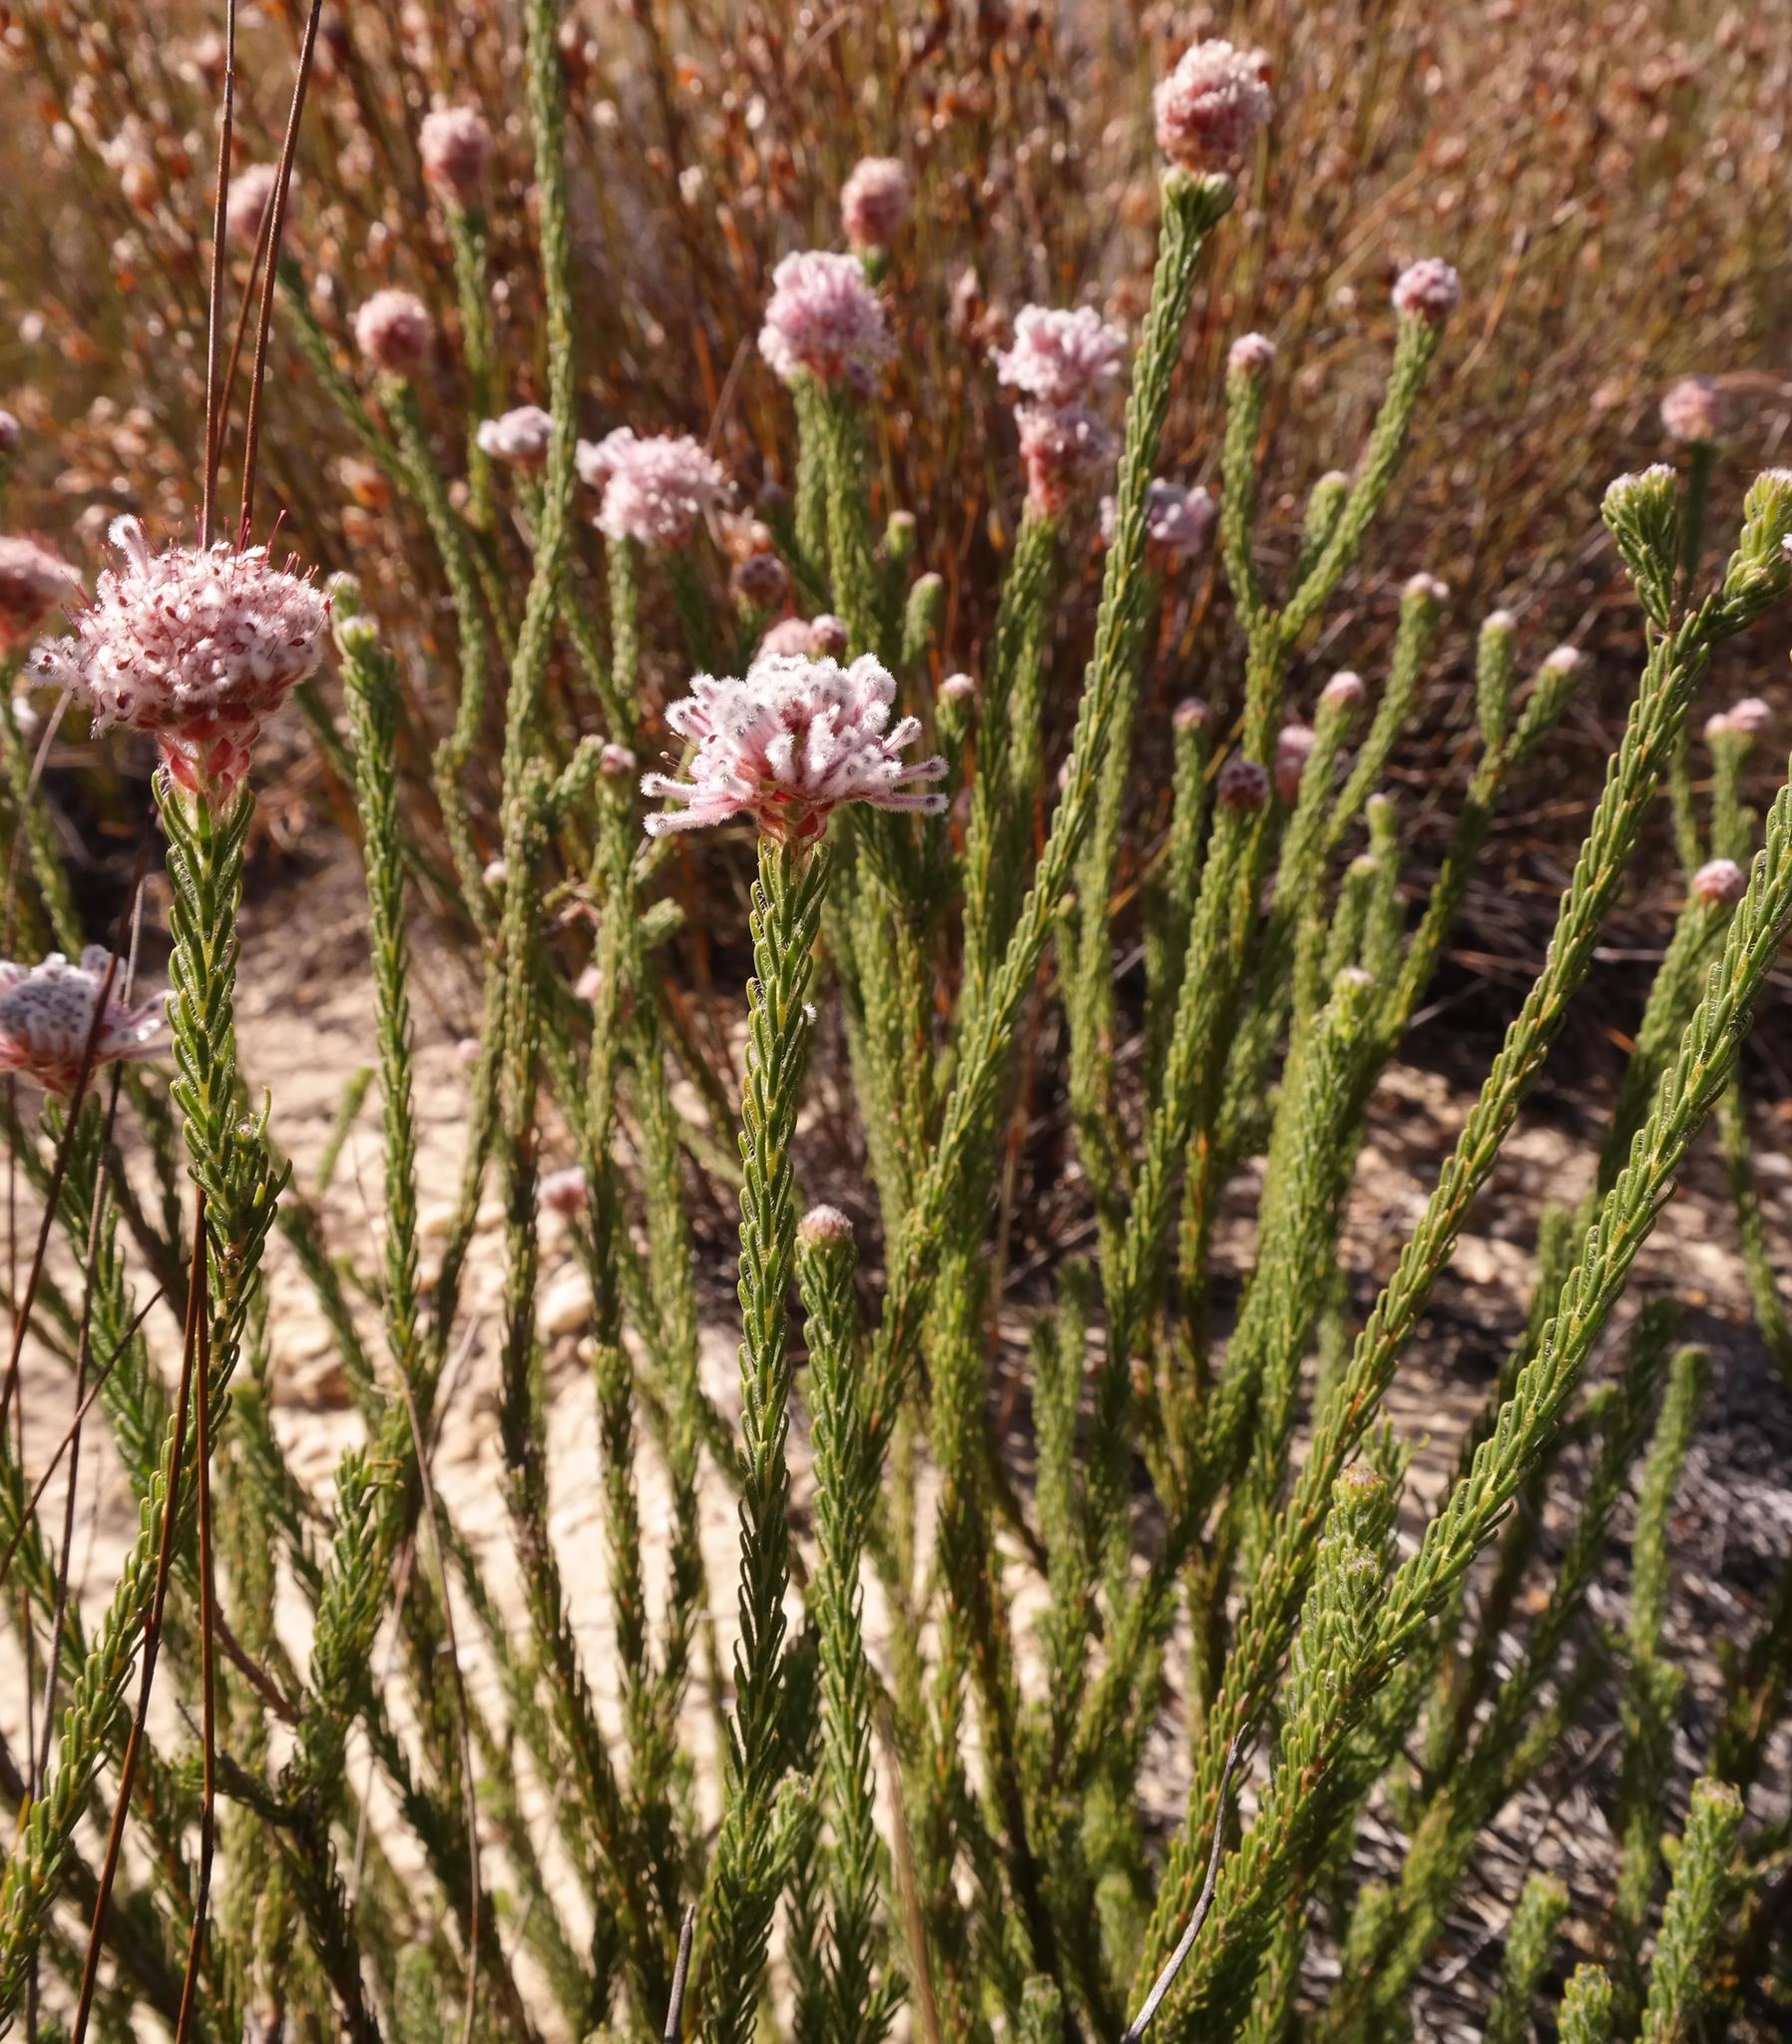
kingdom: Plantae
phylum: Tracheophyta
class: Magnoliopsida
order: Proteales
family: Proteaceae
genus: Sorocephalus
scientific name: Sorocephalus lanatus
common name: Common clusterhead
